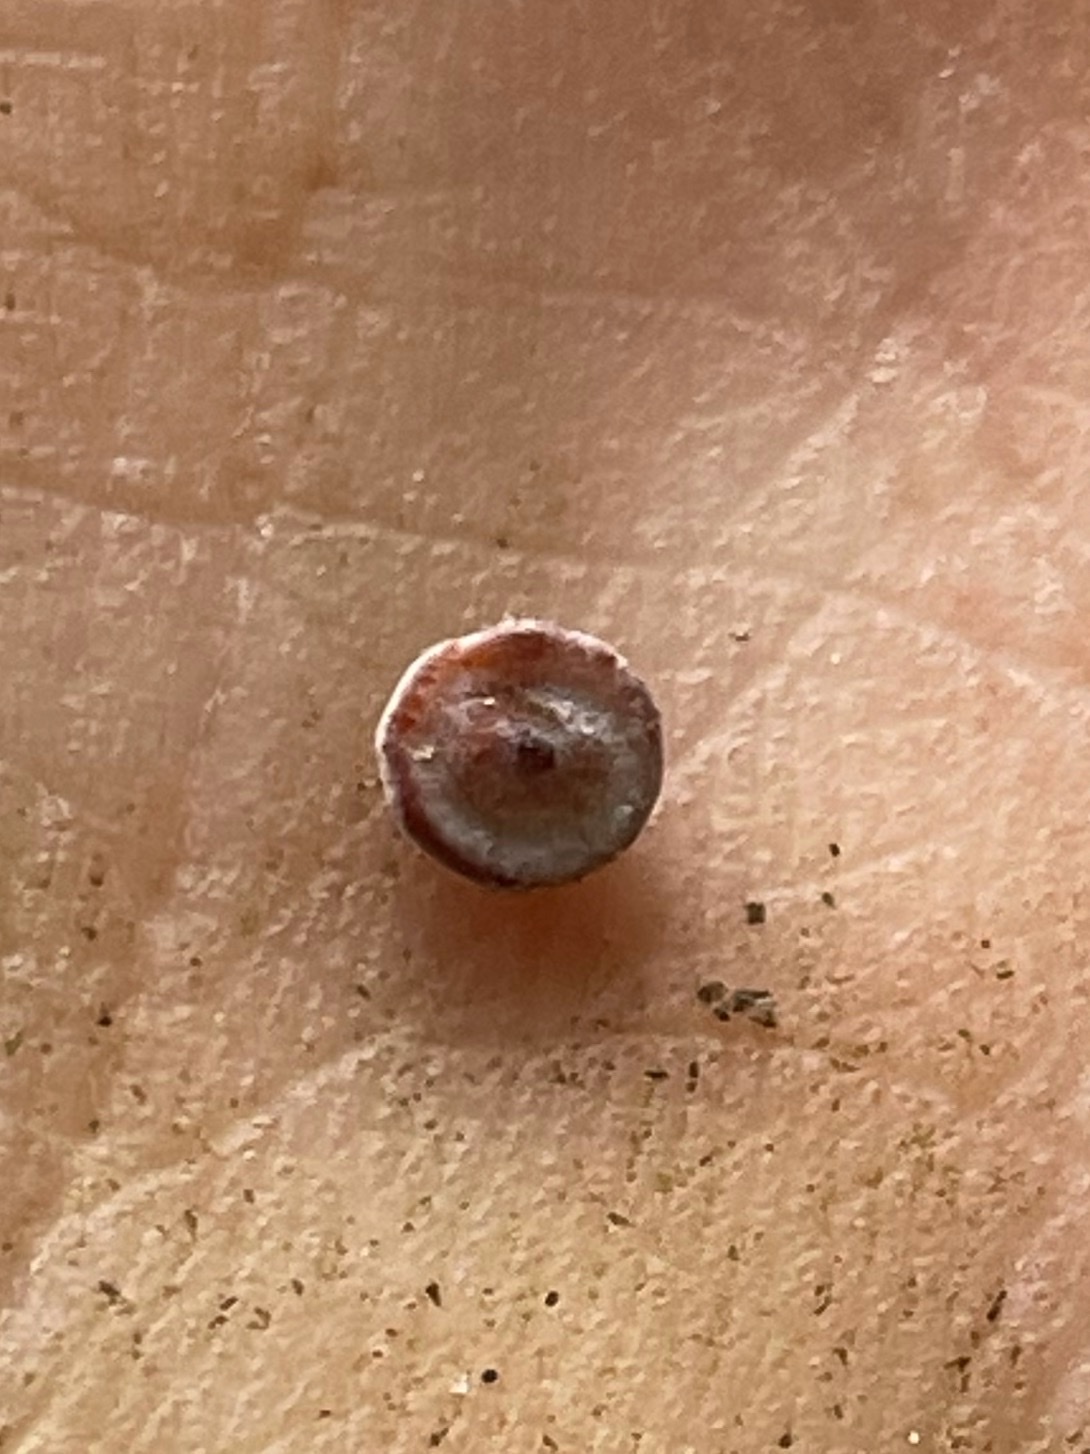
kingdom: Animalia
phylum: Arthropoda
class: Insecta
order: Hymenoptera
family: Cynipidae
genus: Phylloteras
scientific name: Phylloteras poculum
